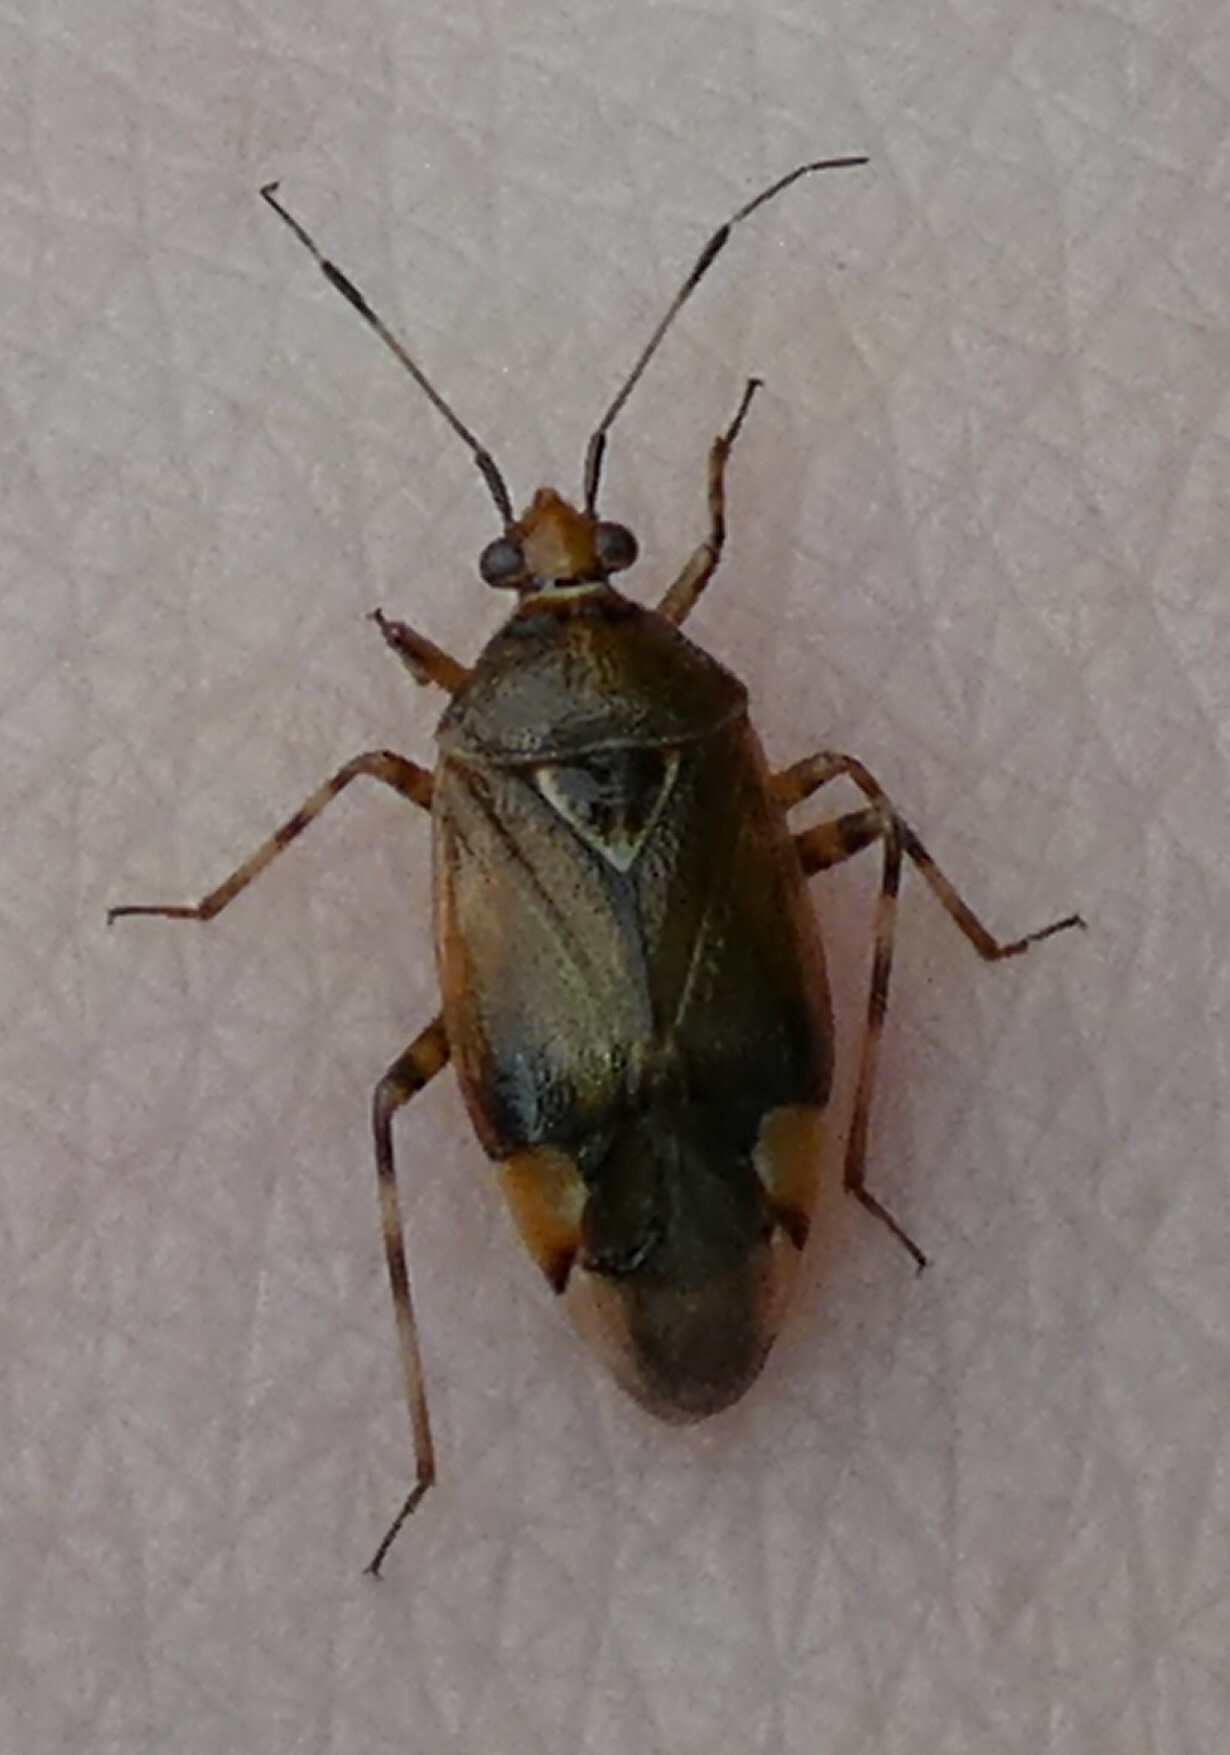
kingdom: Animalia
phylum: Arthropoda
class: Insecta
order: Hemiptera
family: Miridae
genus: Deraeocoris
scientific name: Deraeocoris flavilinea
